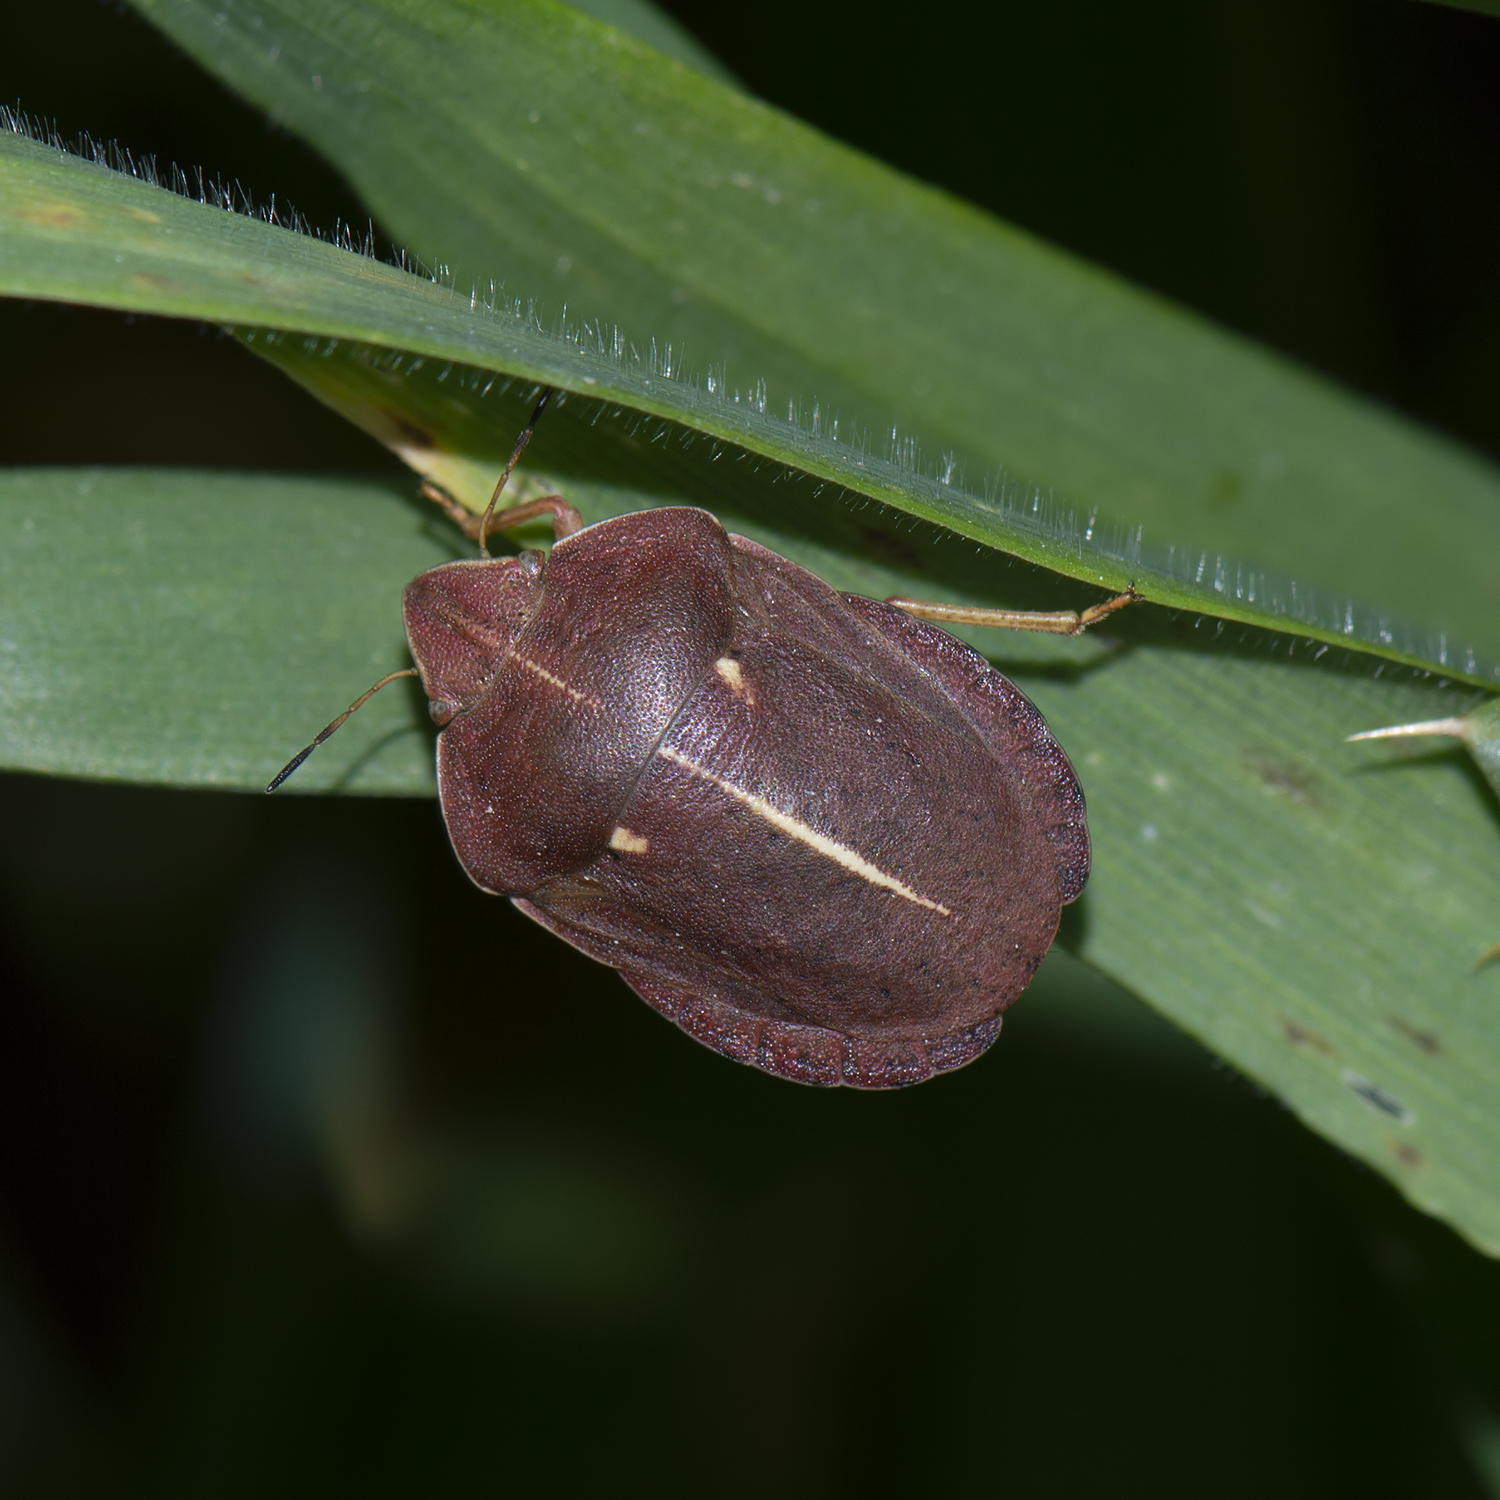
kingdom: Animalia
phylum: Arthropoda
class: Insecta
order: Hemiptera
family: Scutelleridae
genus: Eurygaster
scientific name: Eurygaster austriaca
